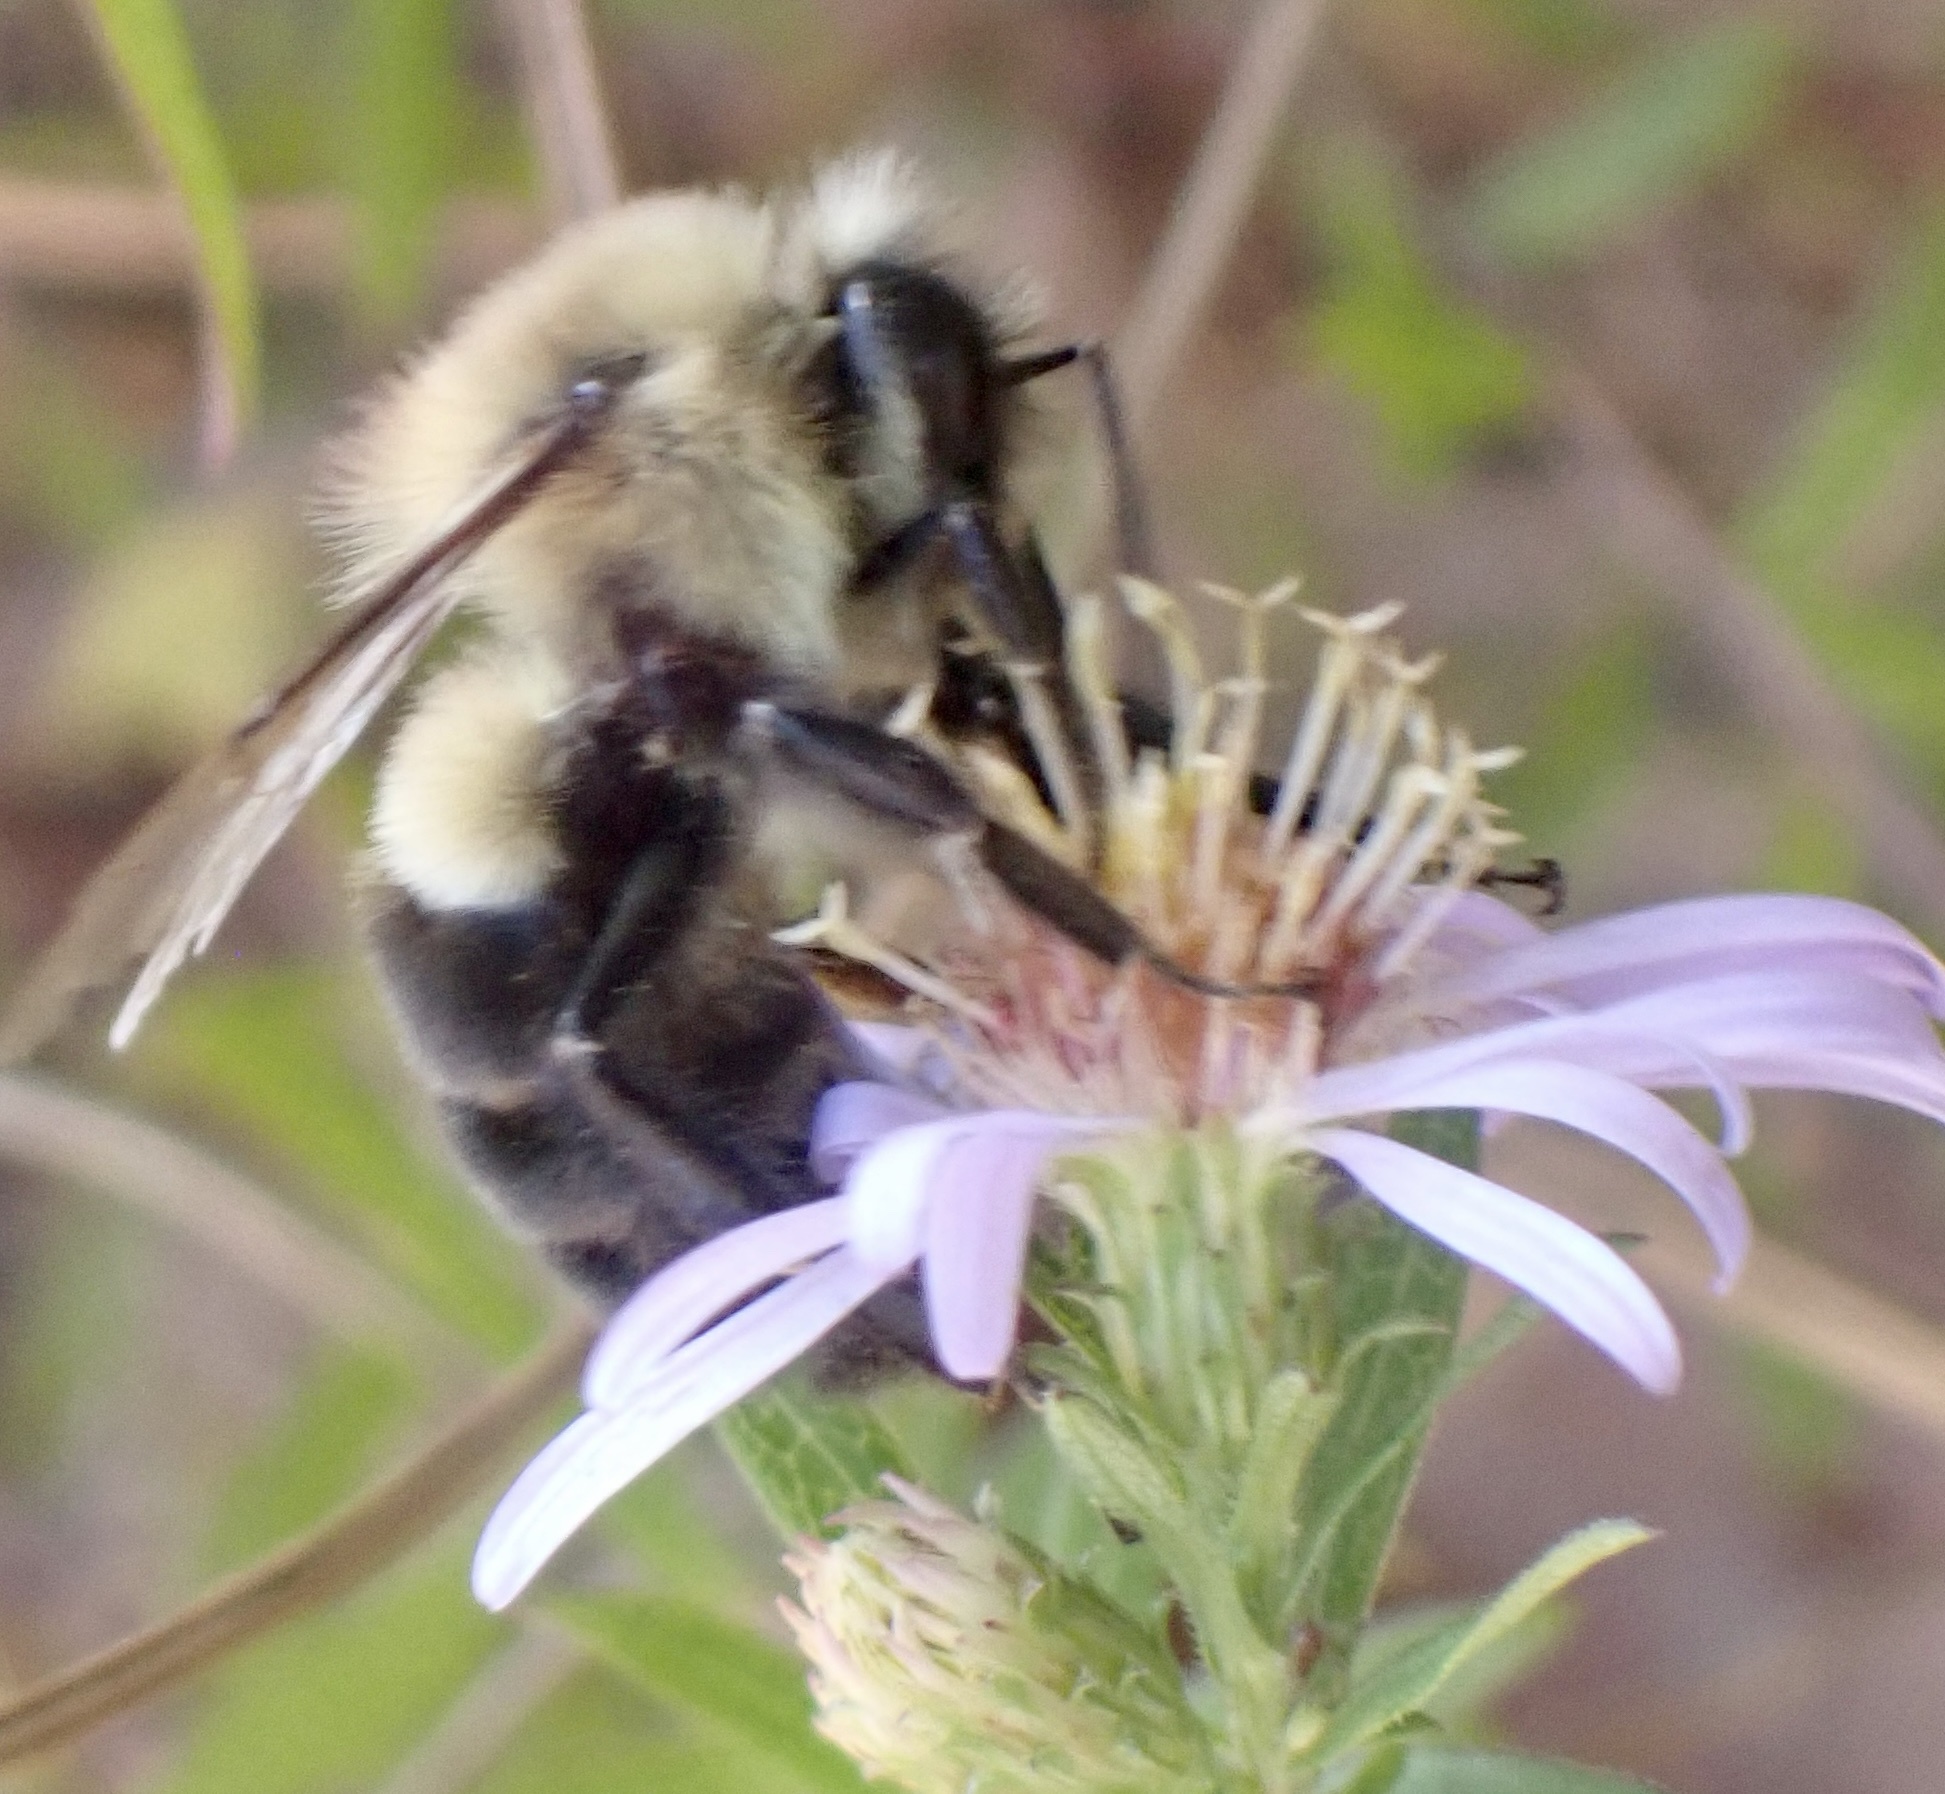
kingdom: Animalia
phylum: Arthropoda
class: Insecta
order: Hymenoptera
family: Apidae
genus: Bombus
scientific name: Bombus impatiens
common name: Common eastern bumble bee
